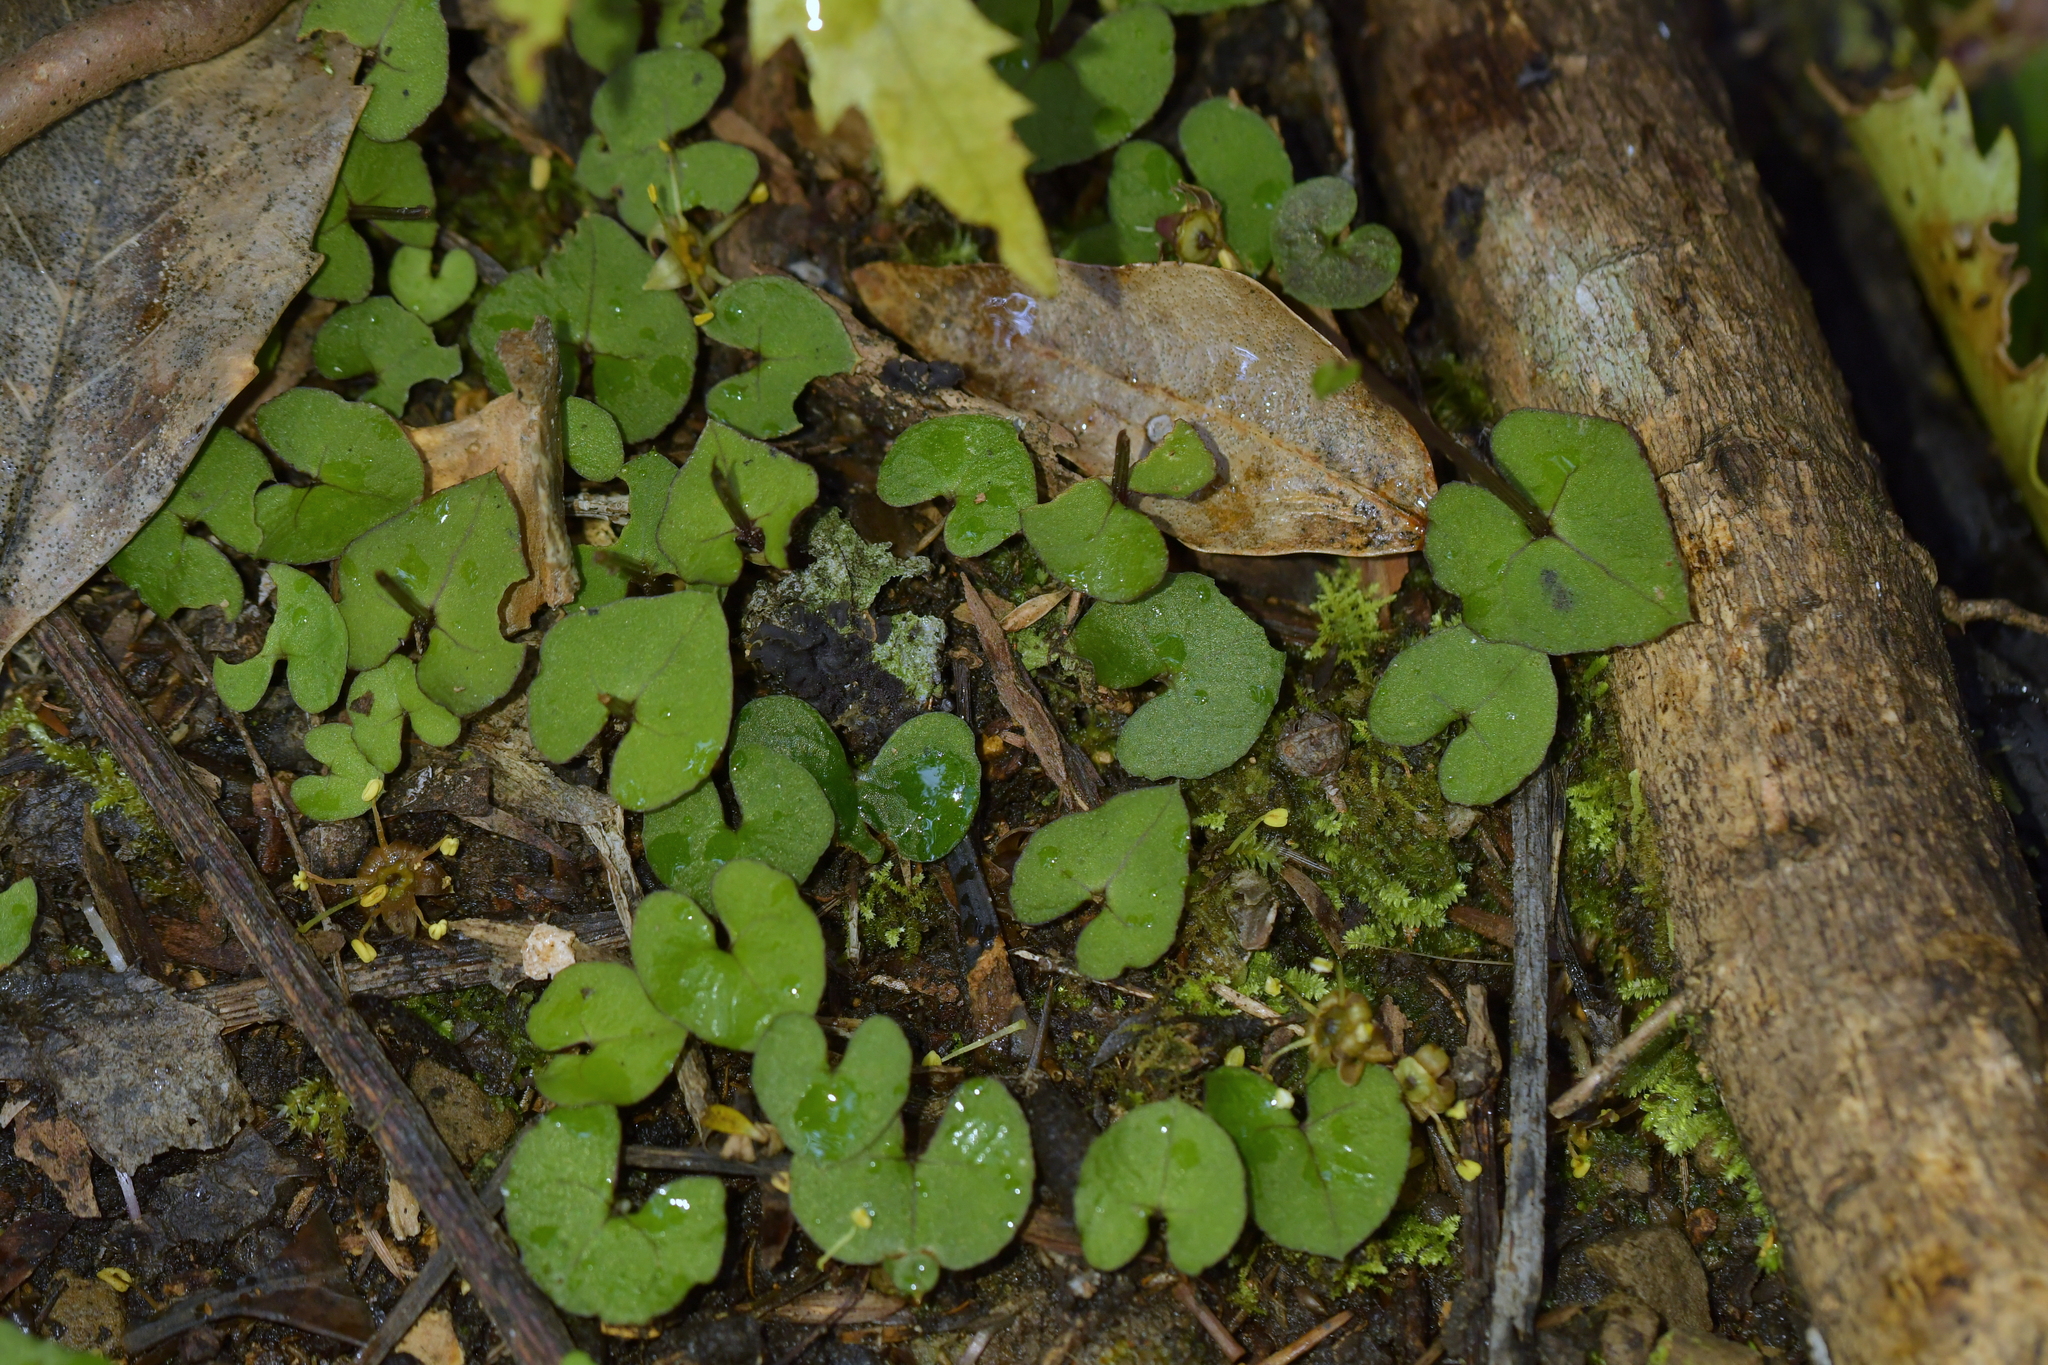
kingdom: Plantae
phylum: Tracheophyta
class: Liliopsida
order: Asparagales
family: Orchidaceae
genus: Acianthus
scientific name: Acianthus sinclairii
